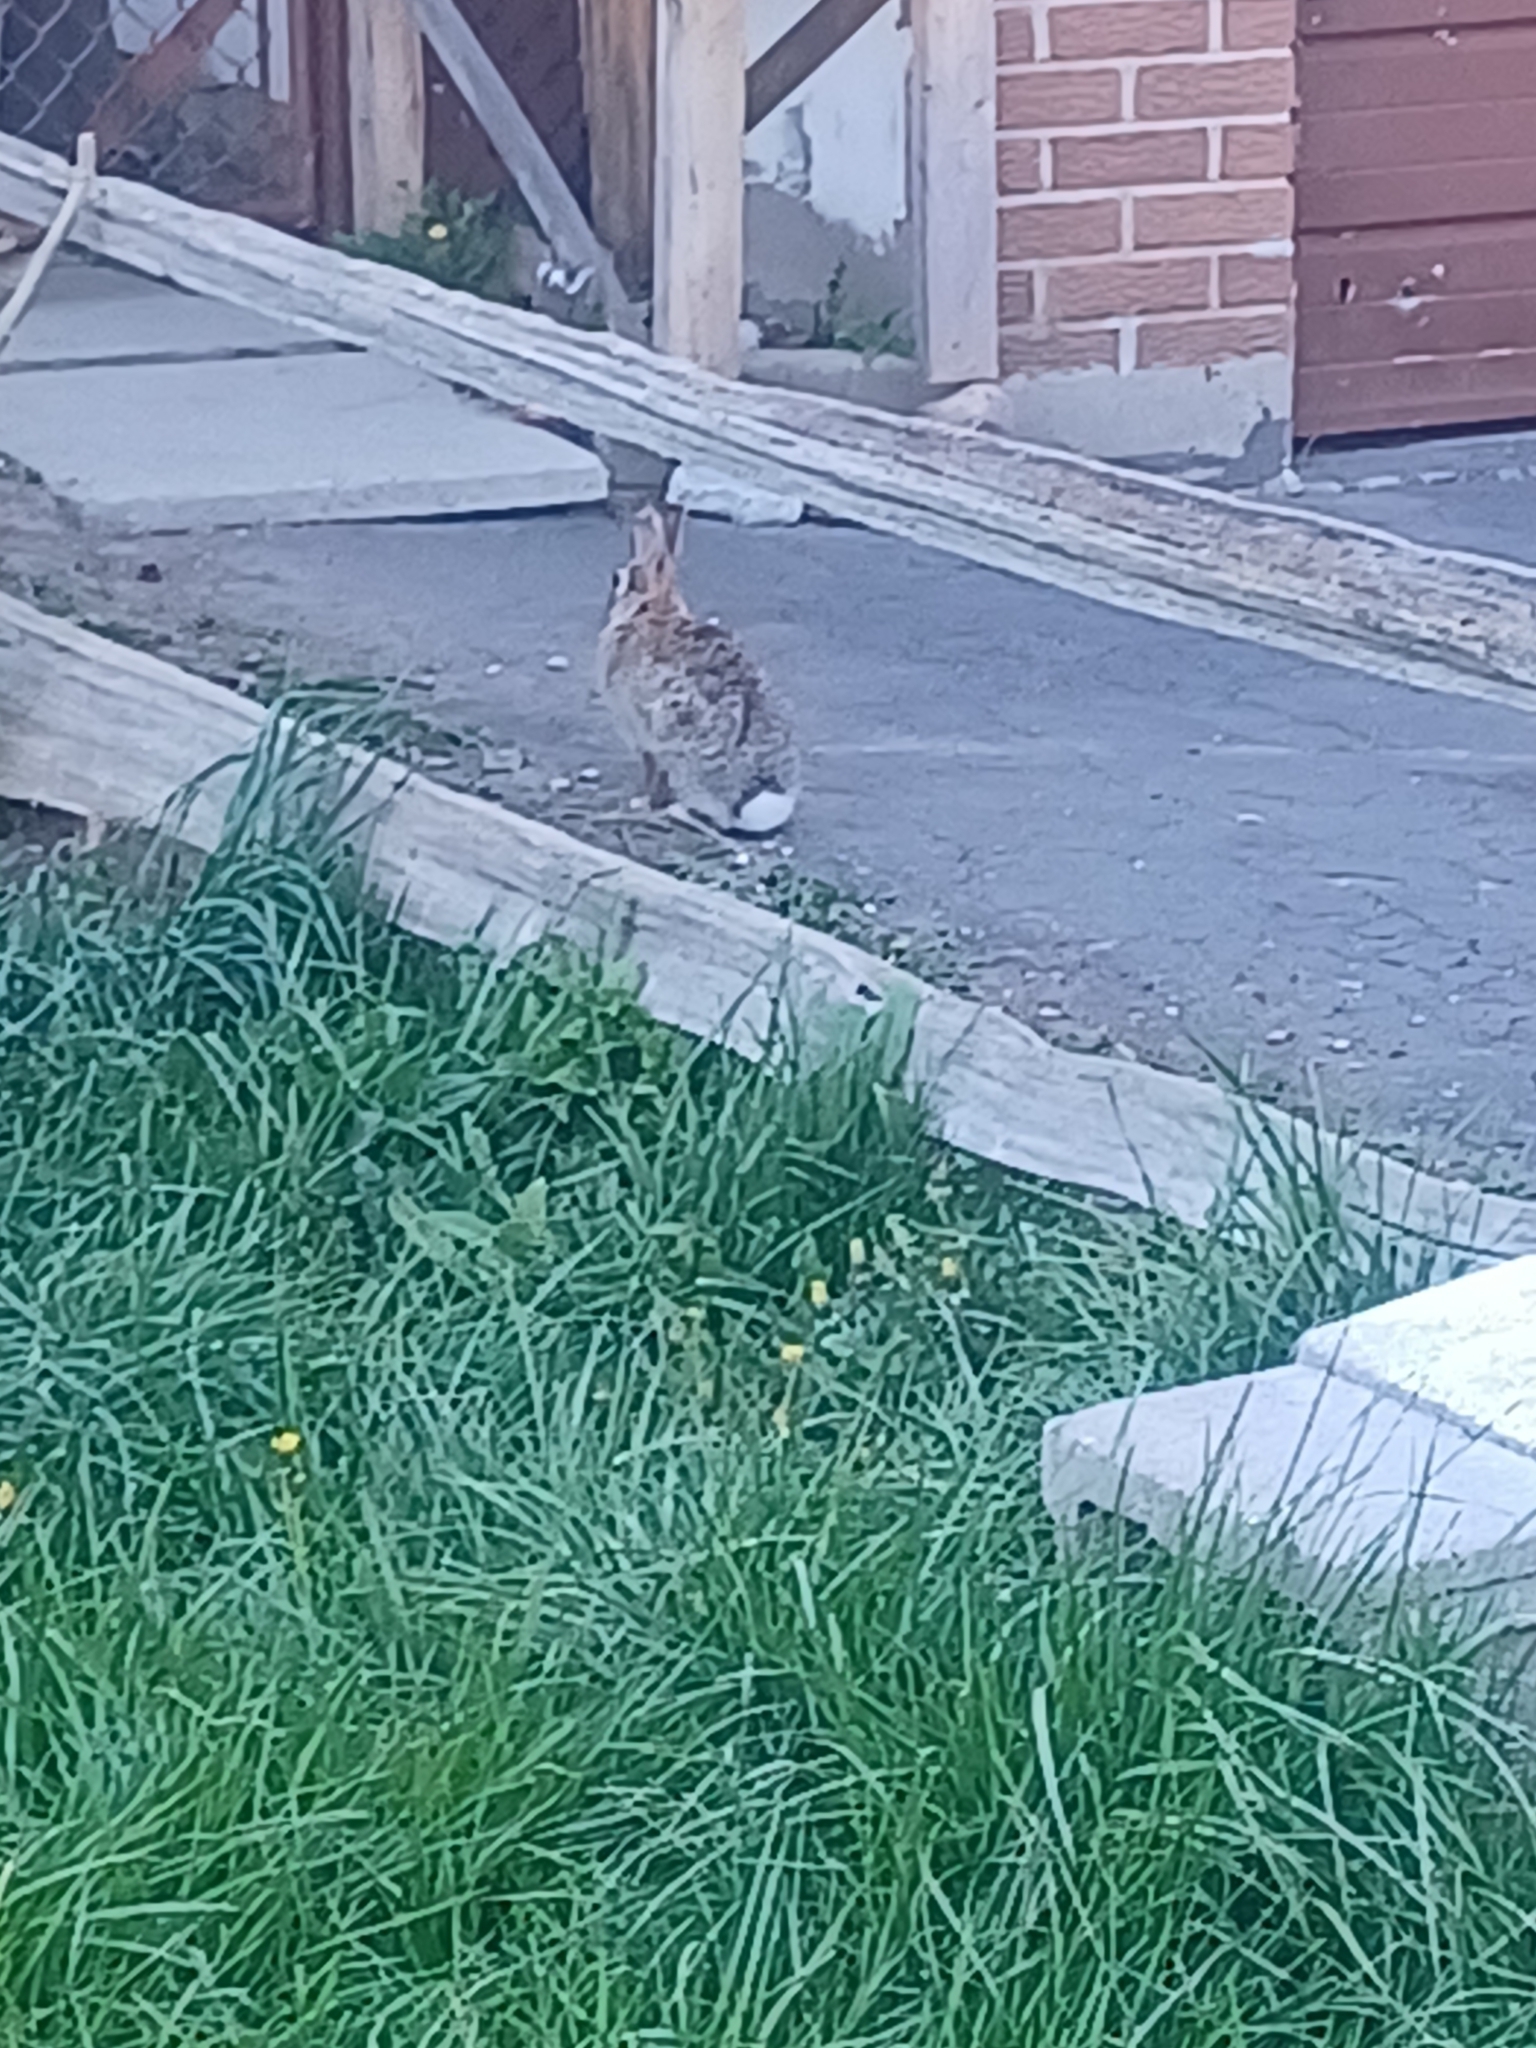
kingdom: Animalia
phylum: Chordata
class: Mammalia
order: Lagomorpha
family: Leporidae
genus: Sylvilagus
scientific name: Sylvilagus floridanus
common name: Eastern cottontail
